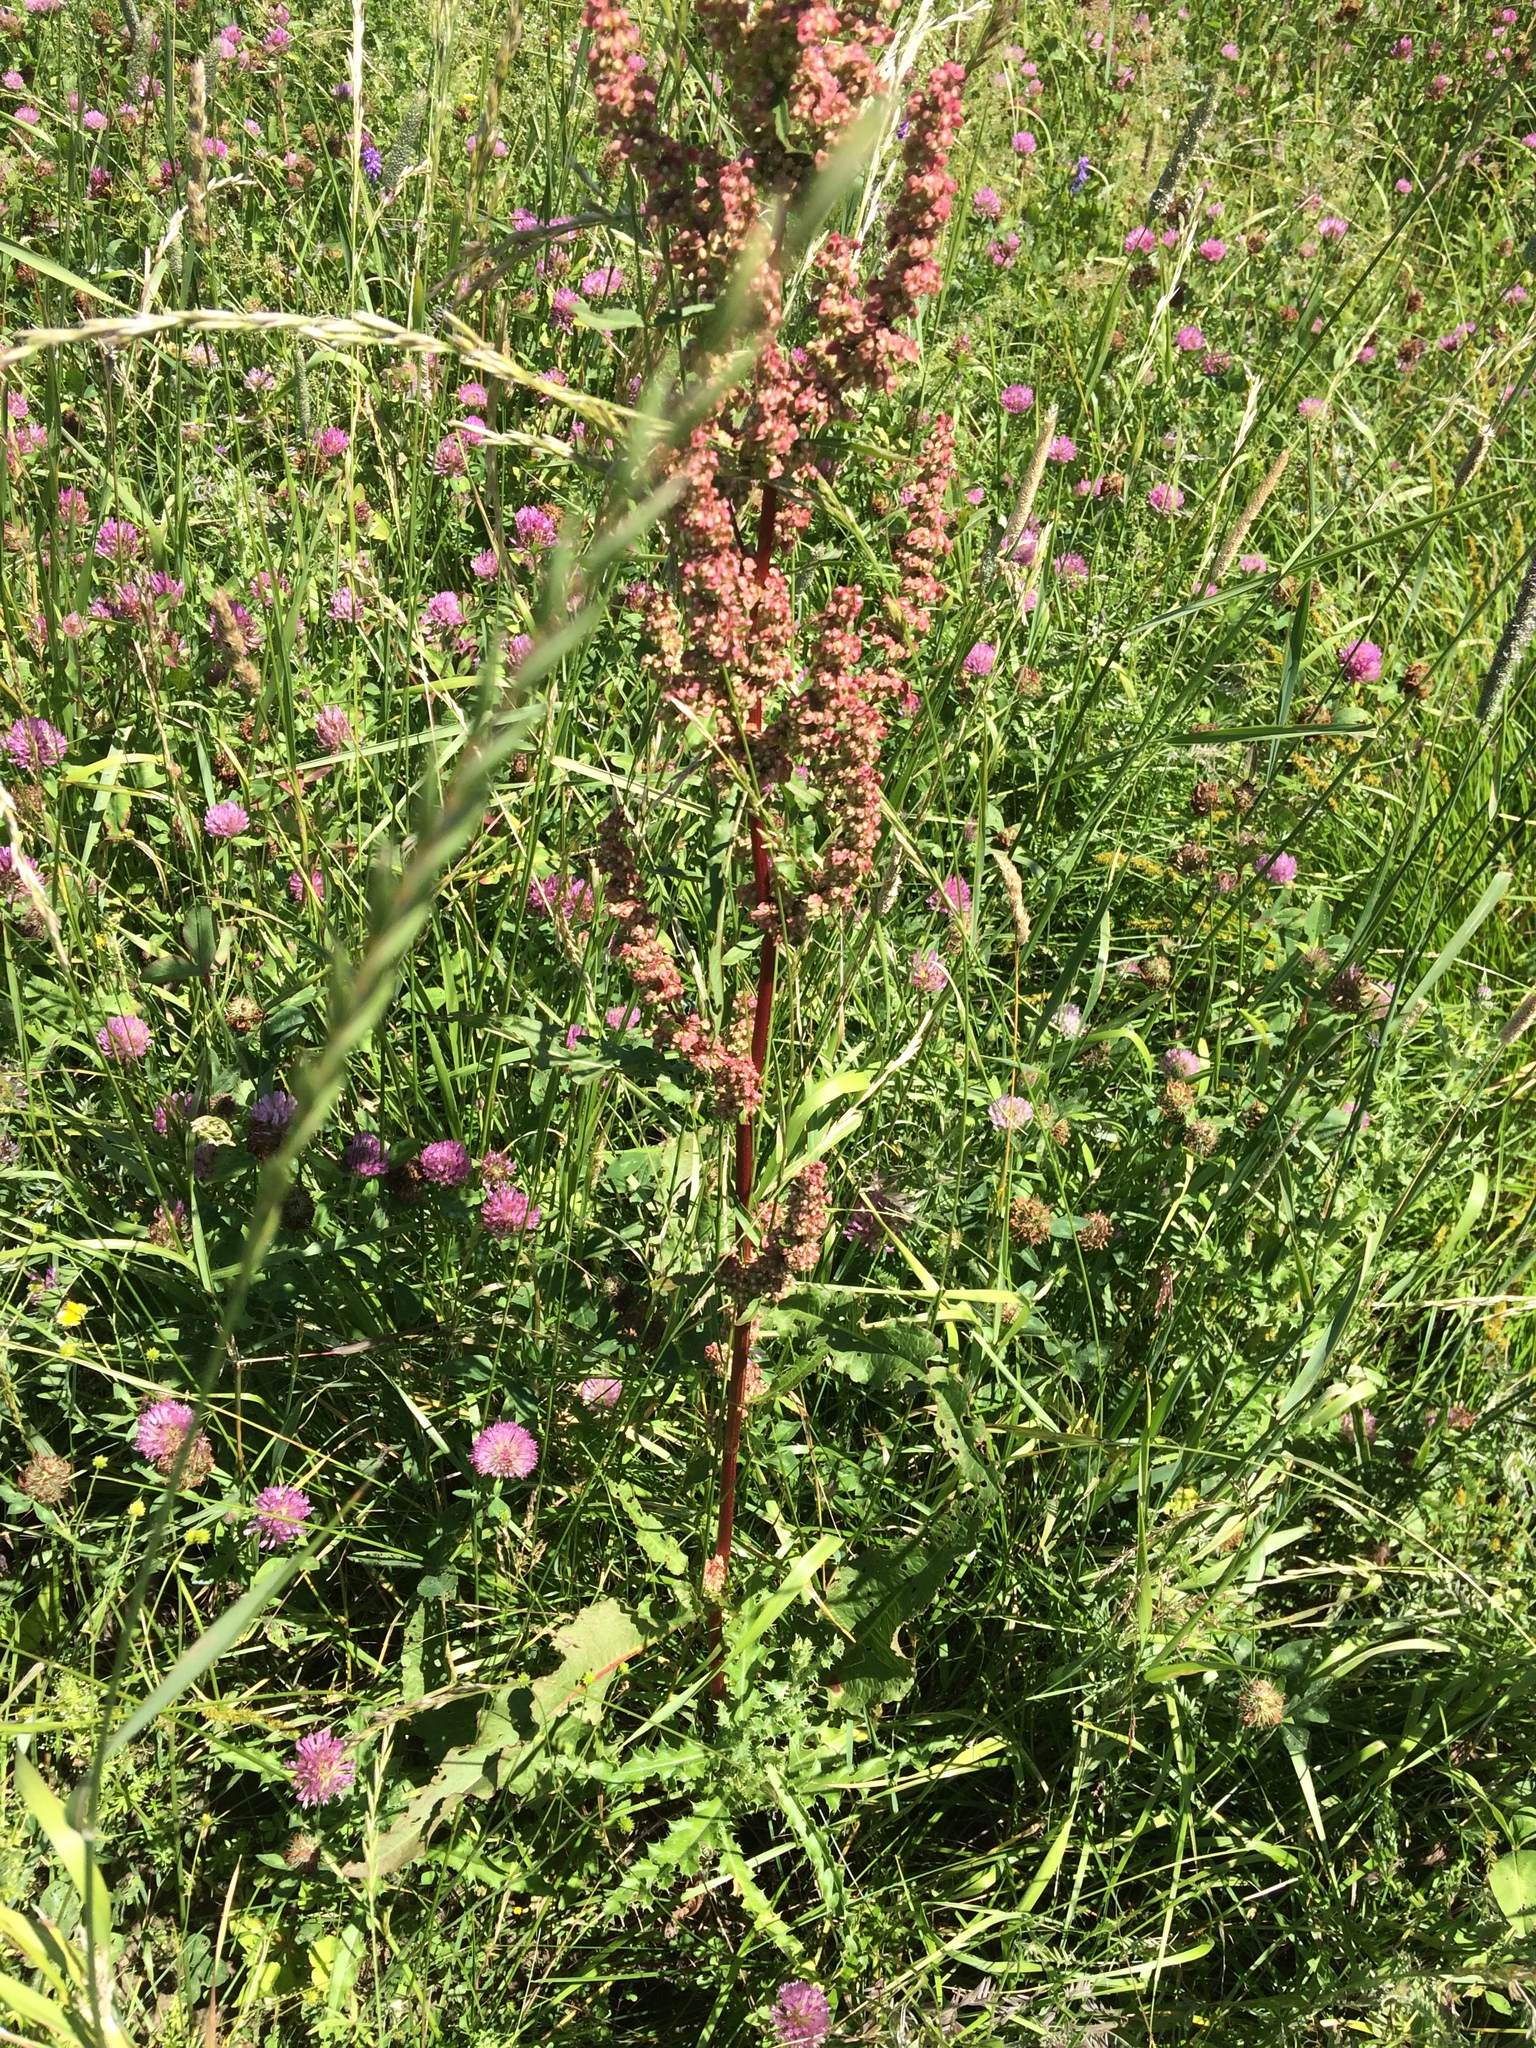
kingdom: Plantae
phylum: Tracheophyta
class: Magnoliopsida
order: Caryophyllales
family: Polygonaceae
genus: Rumex
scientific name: Rumex crispus
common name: Curled dock
